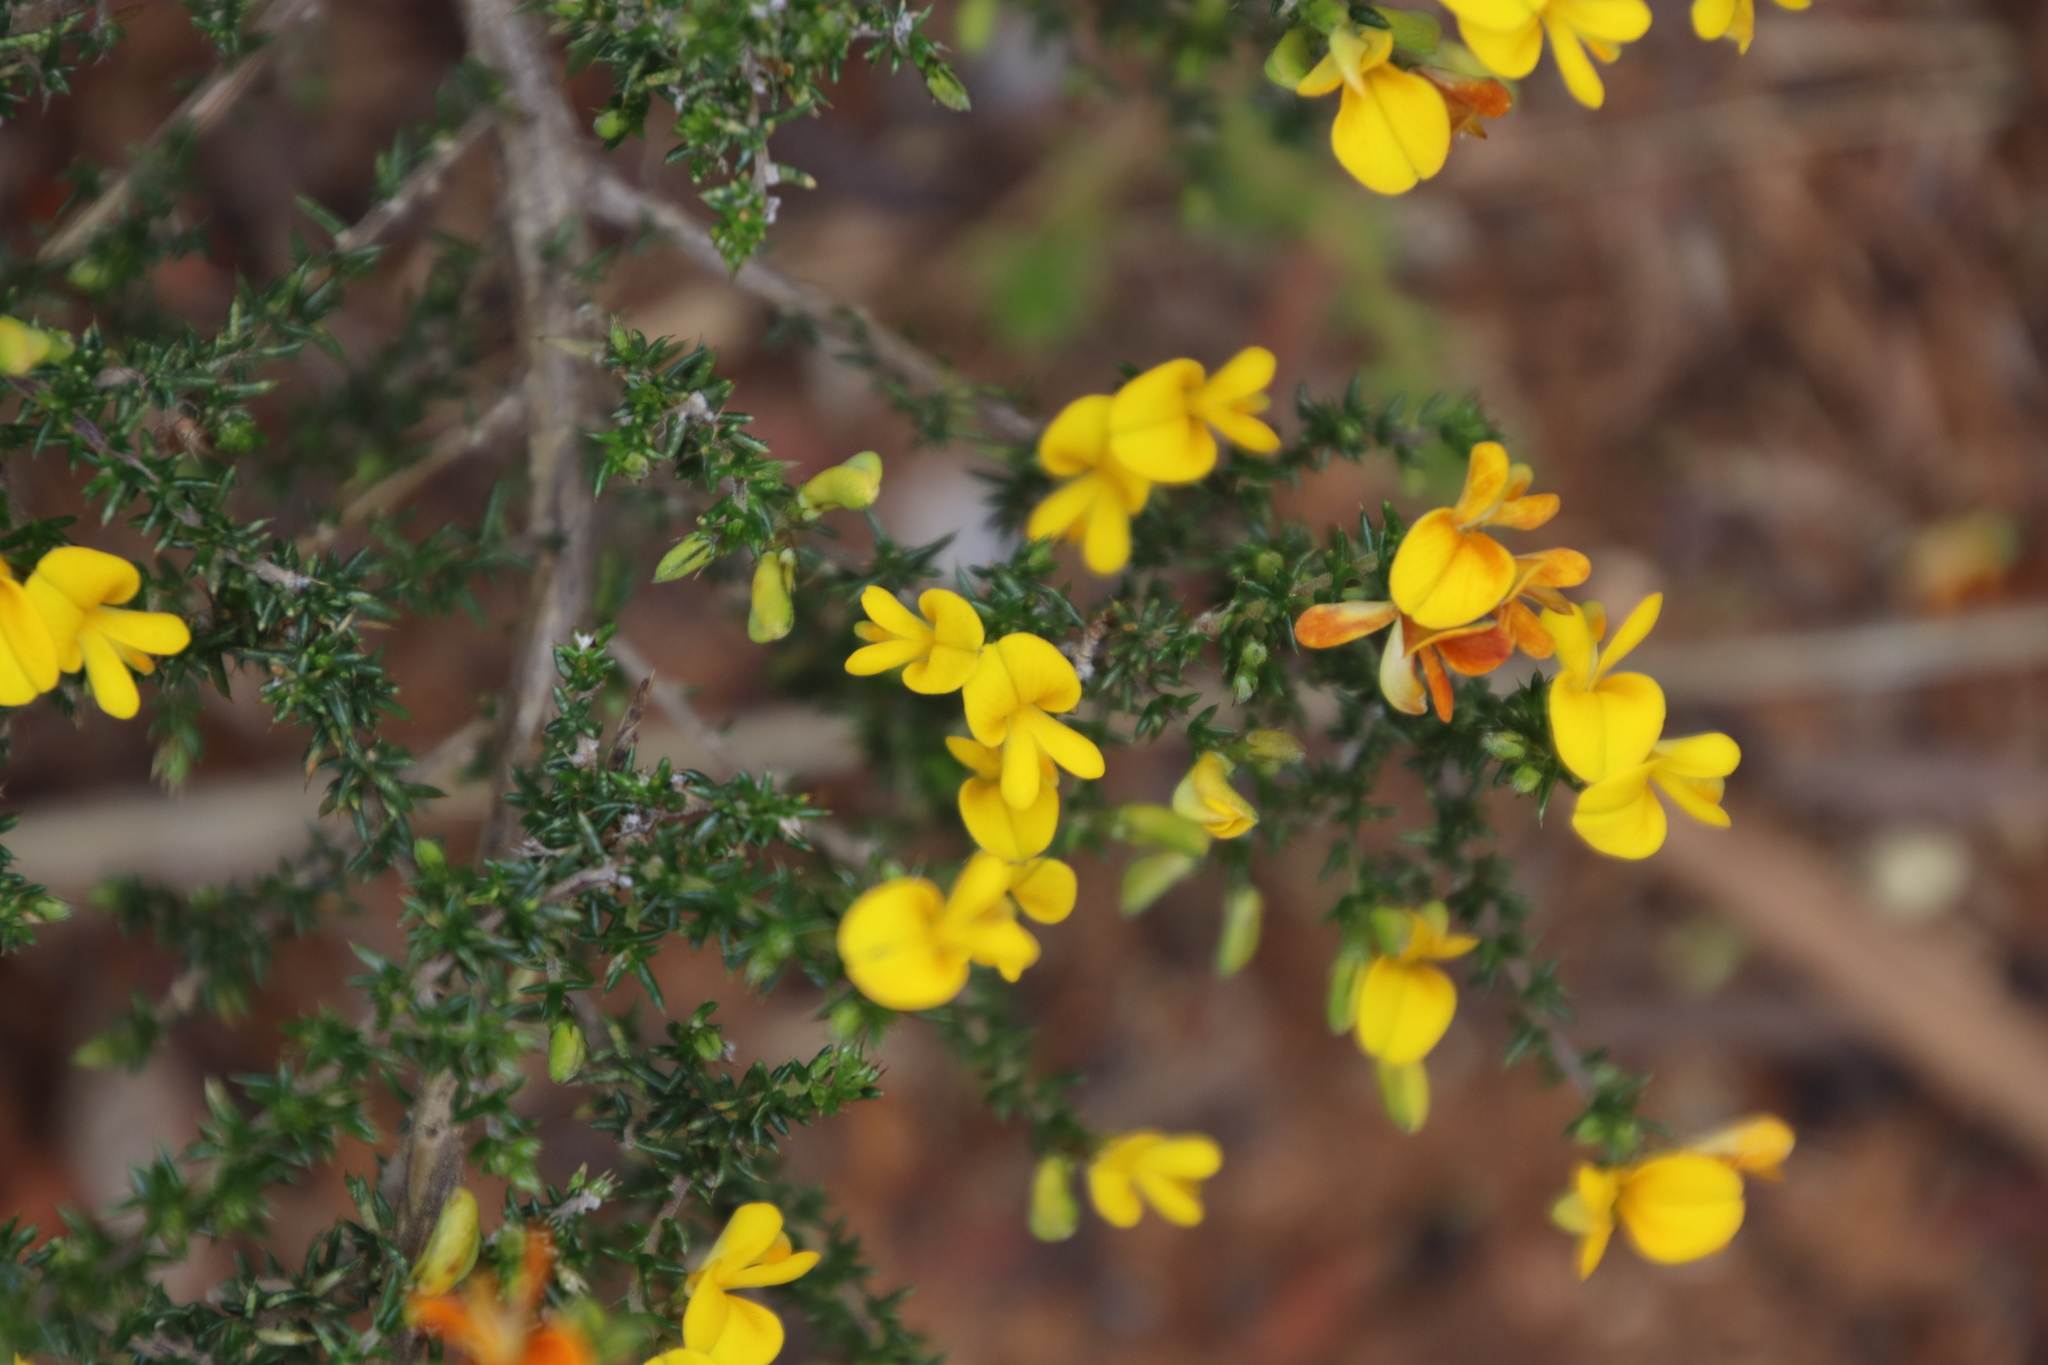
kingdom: Plantae
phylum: Tracheophyta
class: Magnoliopsida
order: Fabales
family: Fabaceae
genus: Aspalathus
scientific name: Aspalathus divaricata
